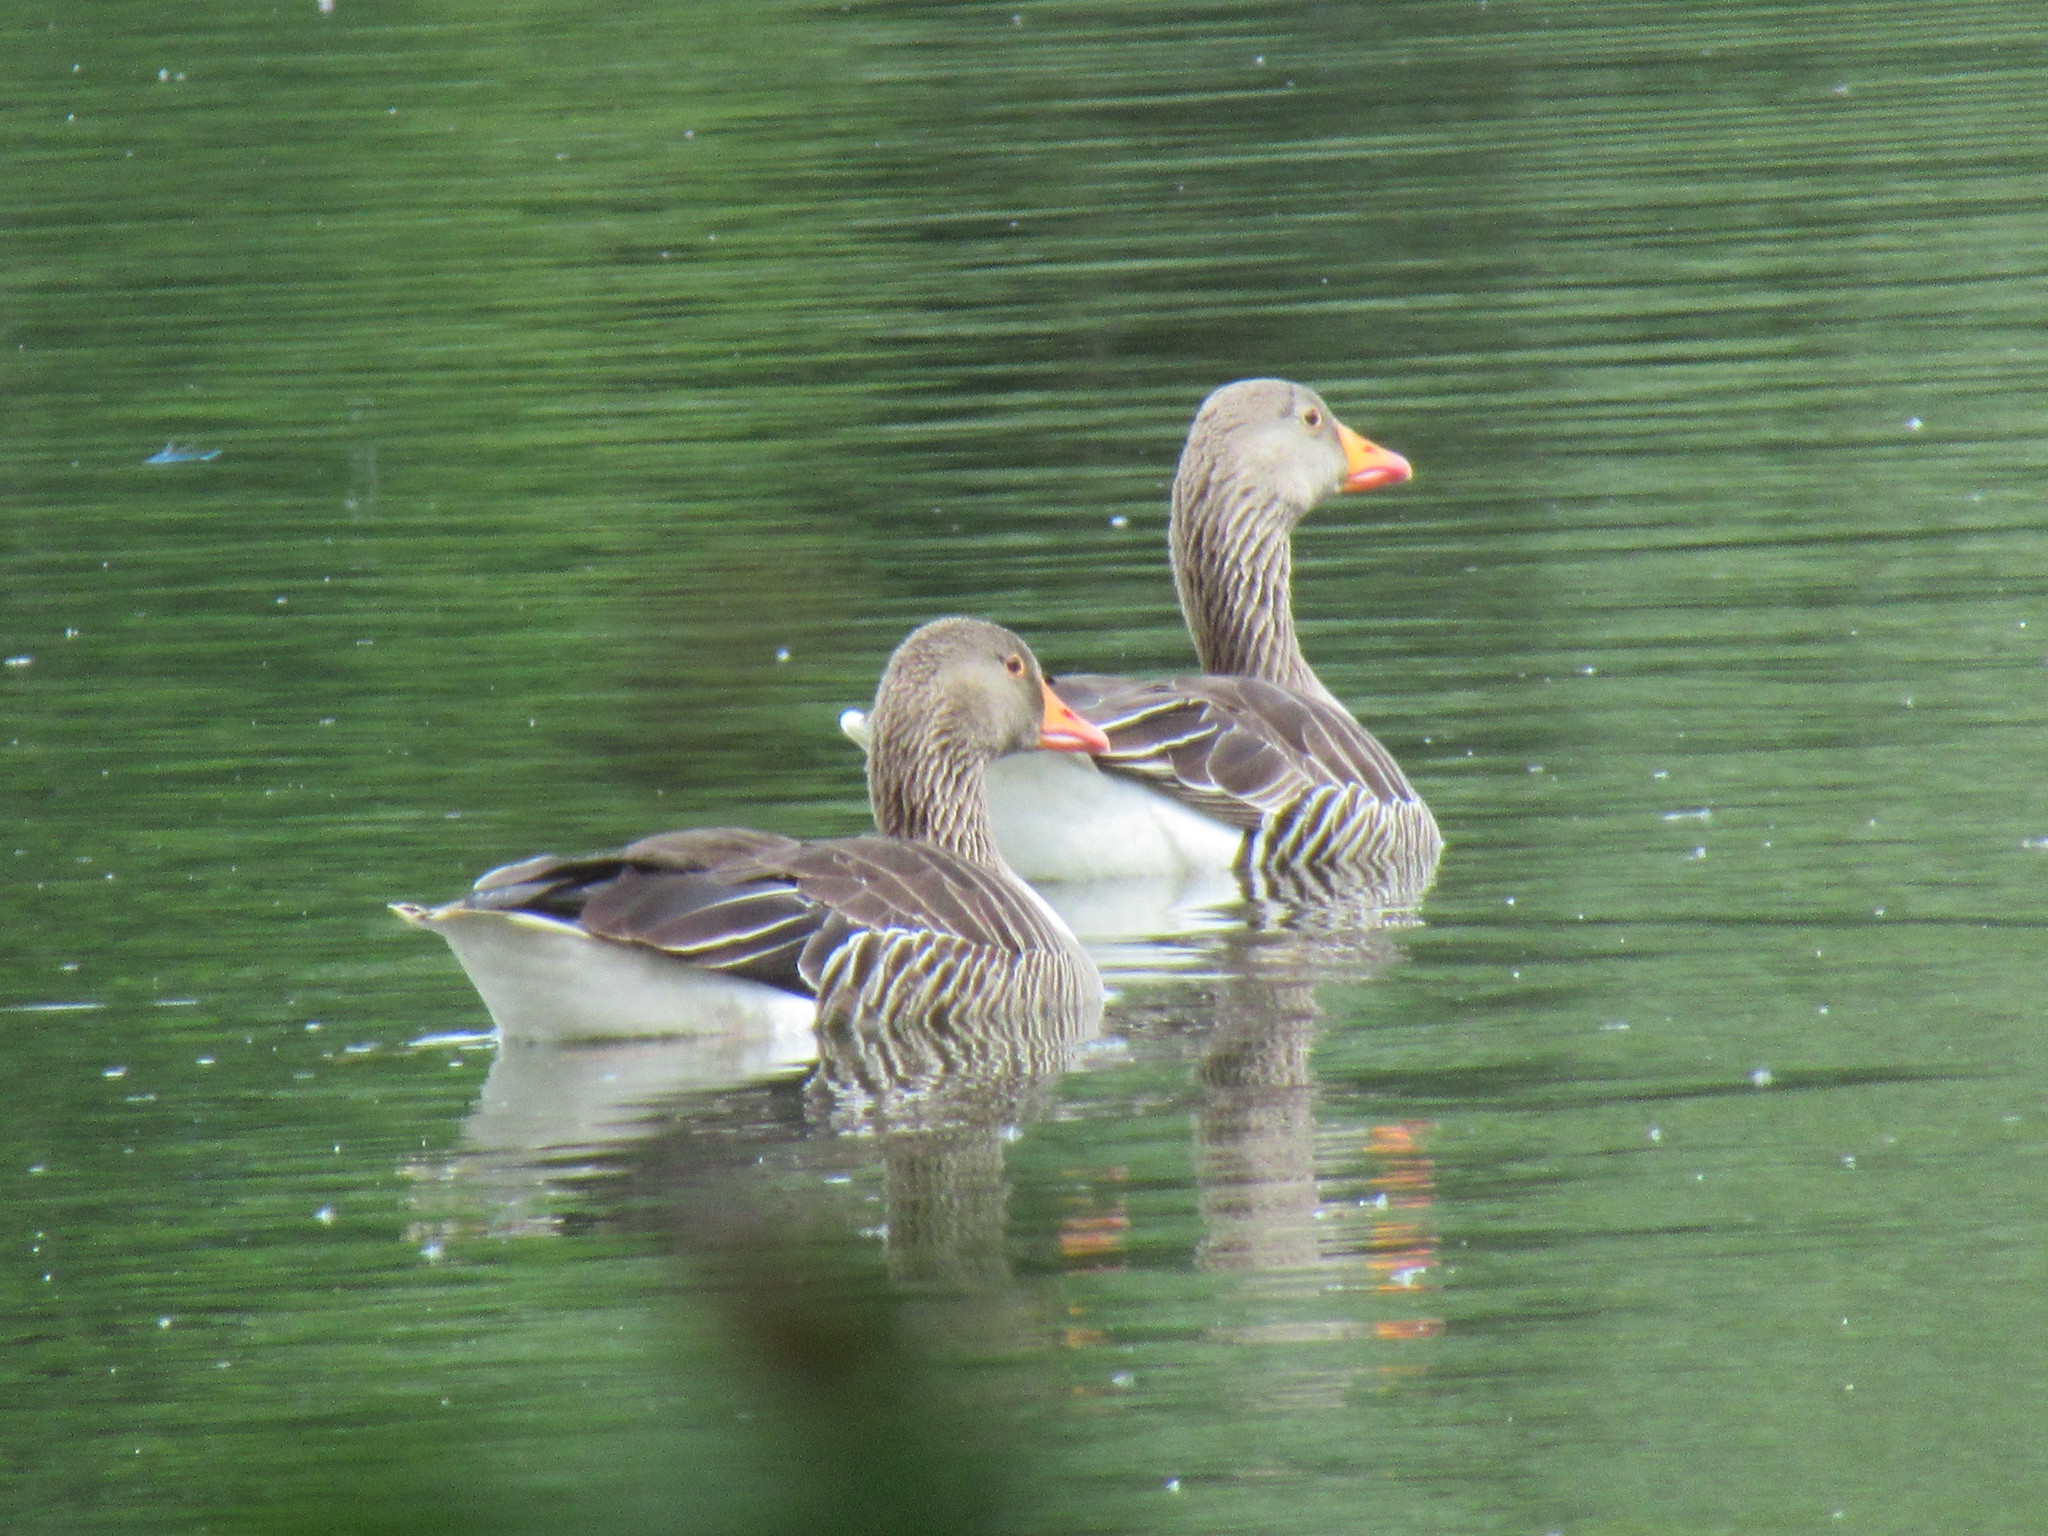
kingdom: Animalia
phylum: Chordata
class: Aves
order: Anseriformes
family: Anatidae
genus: Anser
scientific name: Anser anser
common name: Greylag goose
